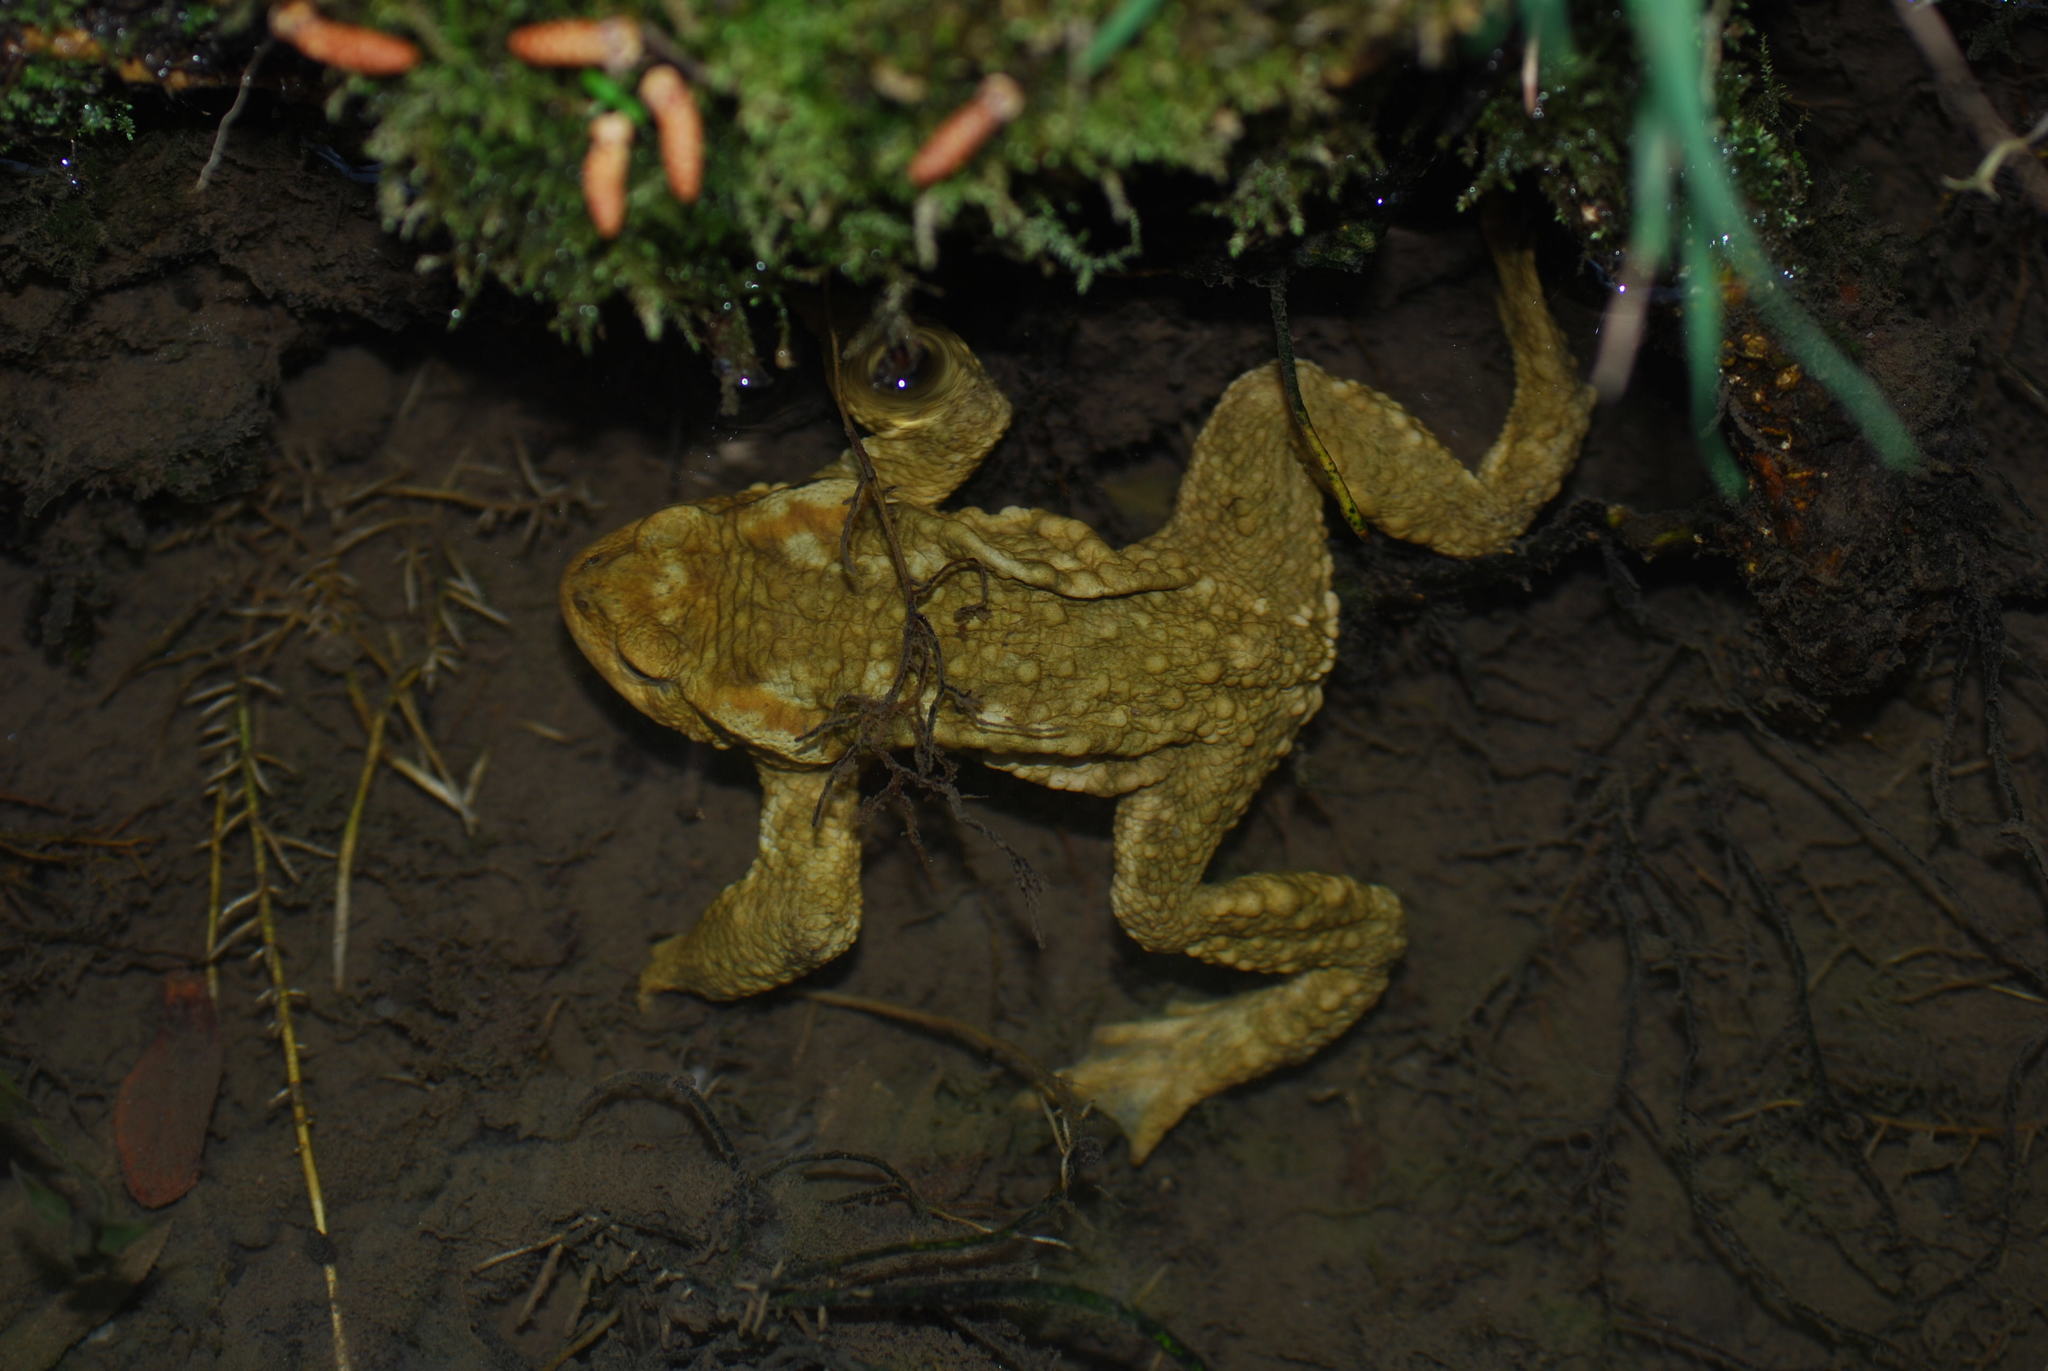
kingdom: Animalia
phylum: Chordata
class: Amphibia
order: Anura
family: Bufonidae
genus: Bufo
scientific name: Bufo spinosus
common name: Western common toad
